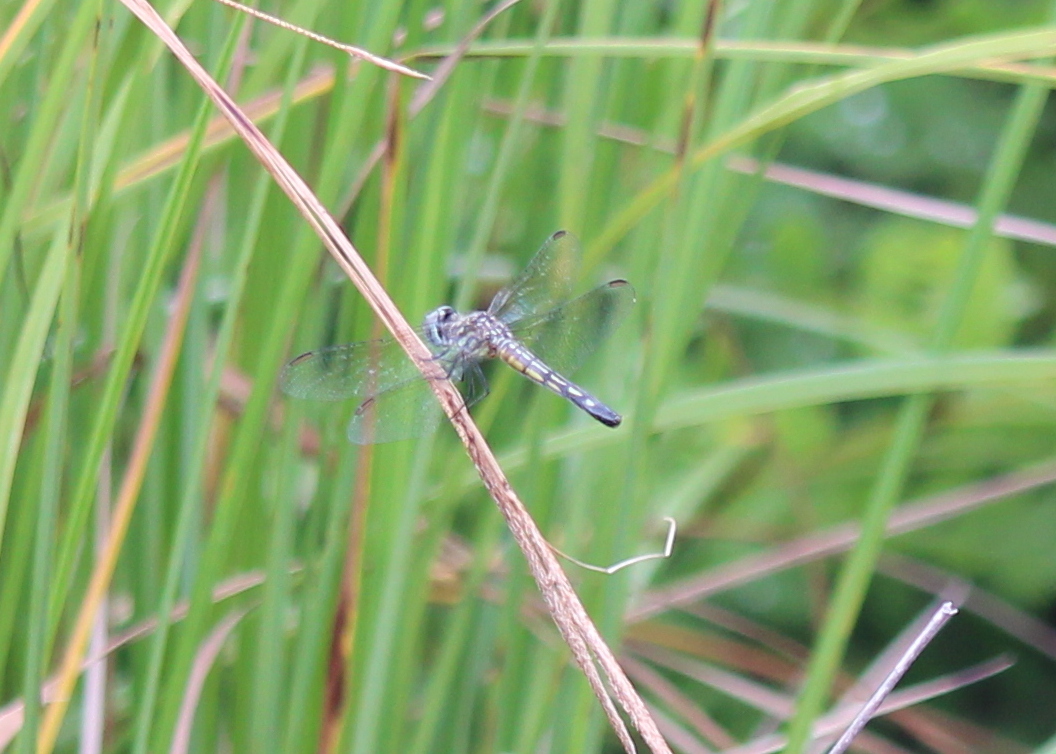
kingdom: Animalia
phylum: Arthropoda
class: Insecta
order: Odonata
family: Libellulidae
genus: Pachydiplax
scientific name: Pachydiplax longipennis
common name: Blue dasher
